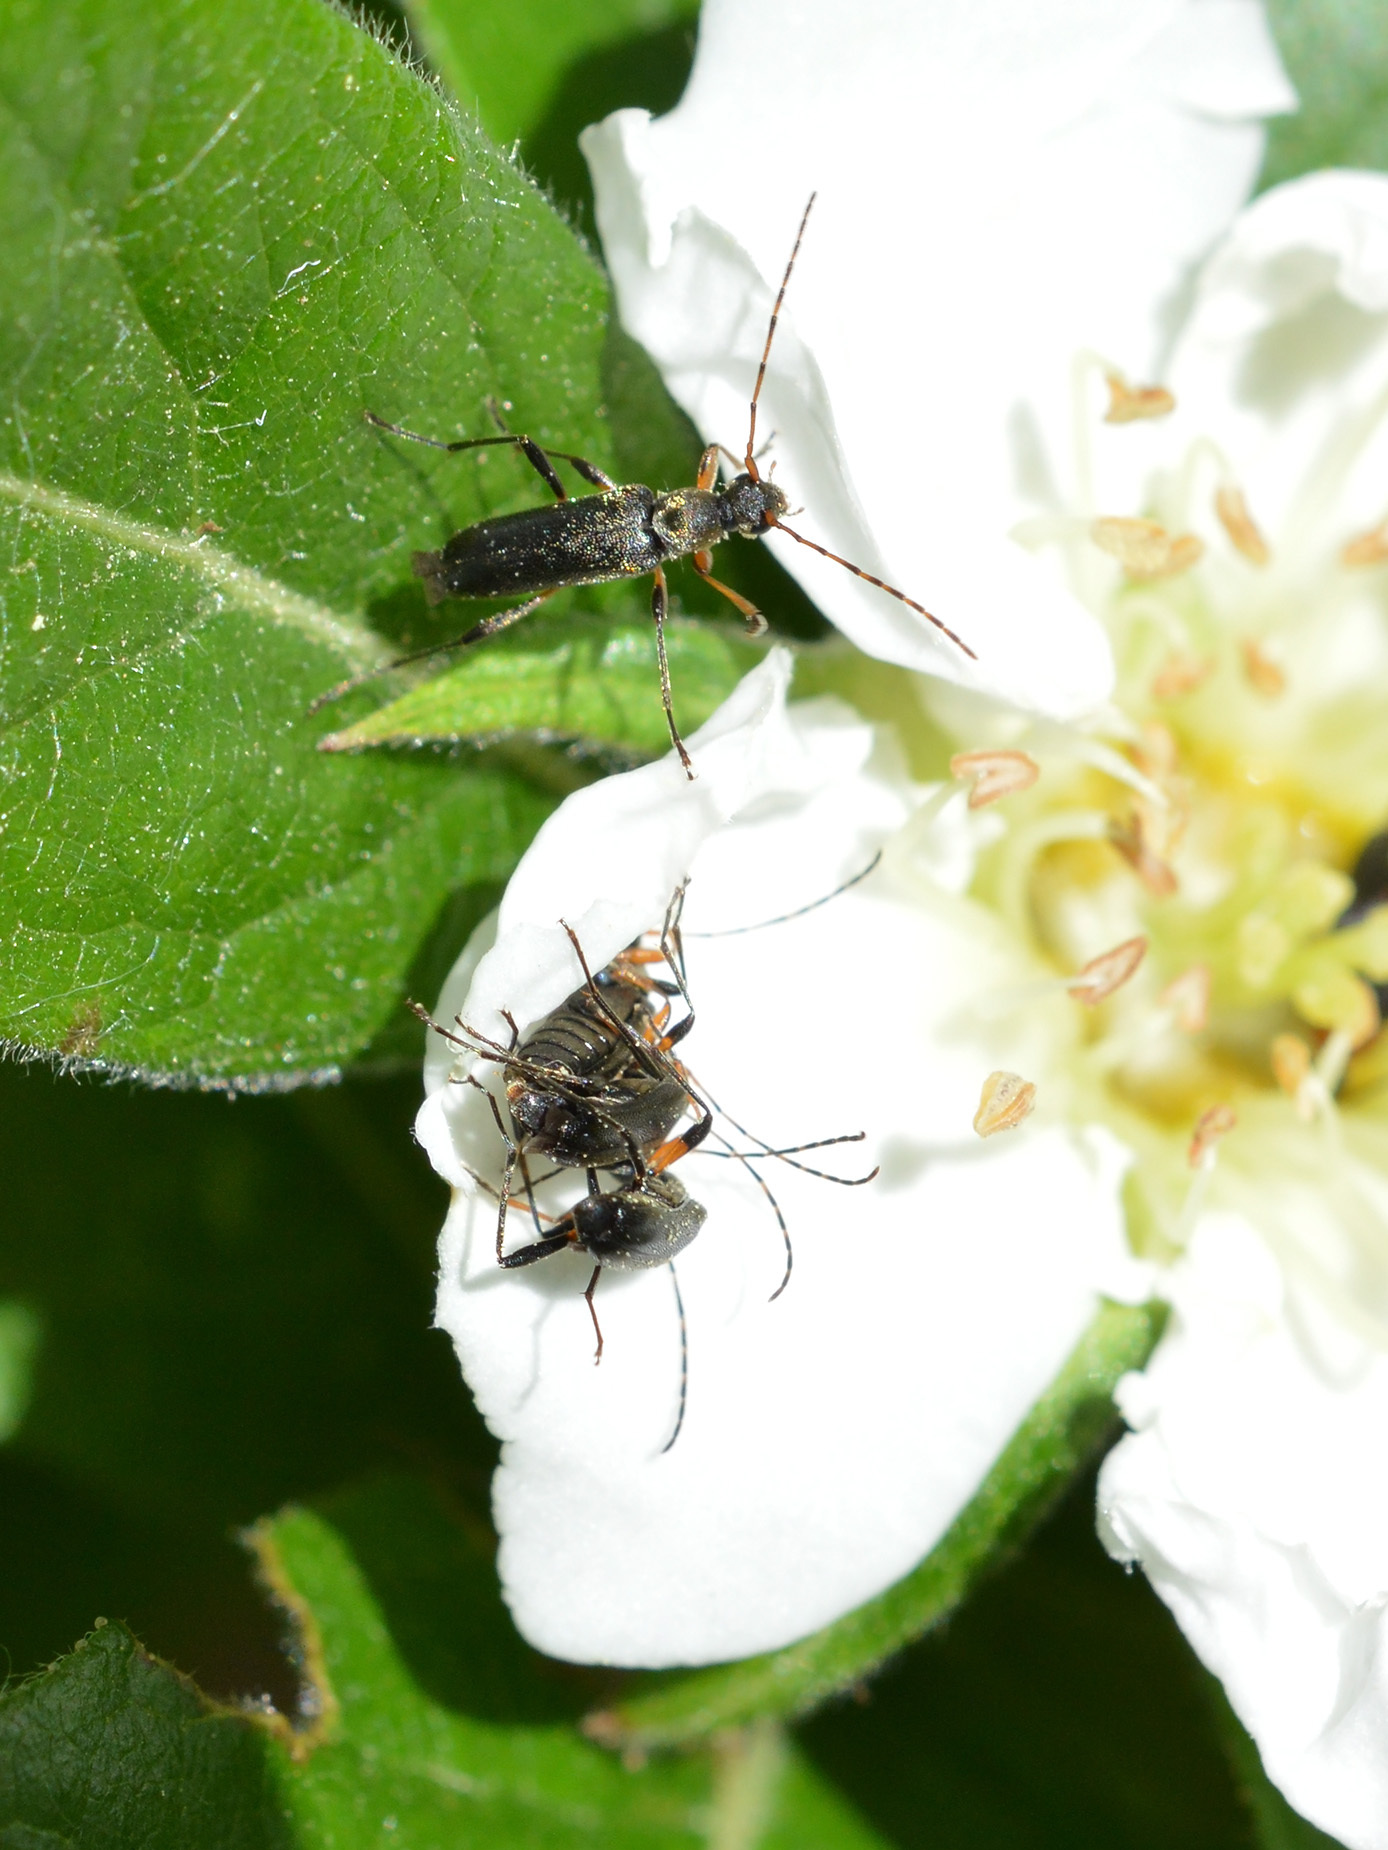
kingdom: Animalia
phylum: Arthropoda
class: Insecta
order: Coleoptera
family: Cerambycidae
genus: Grammoptera
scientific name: Grammoptera ruficornis
